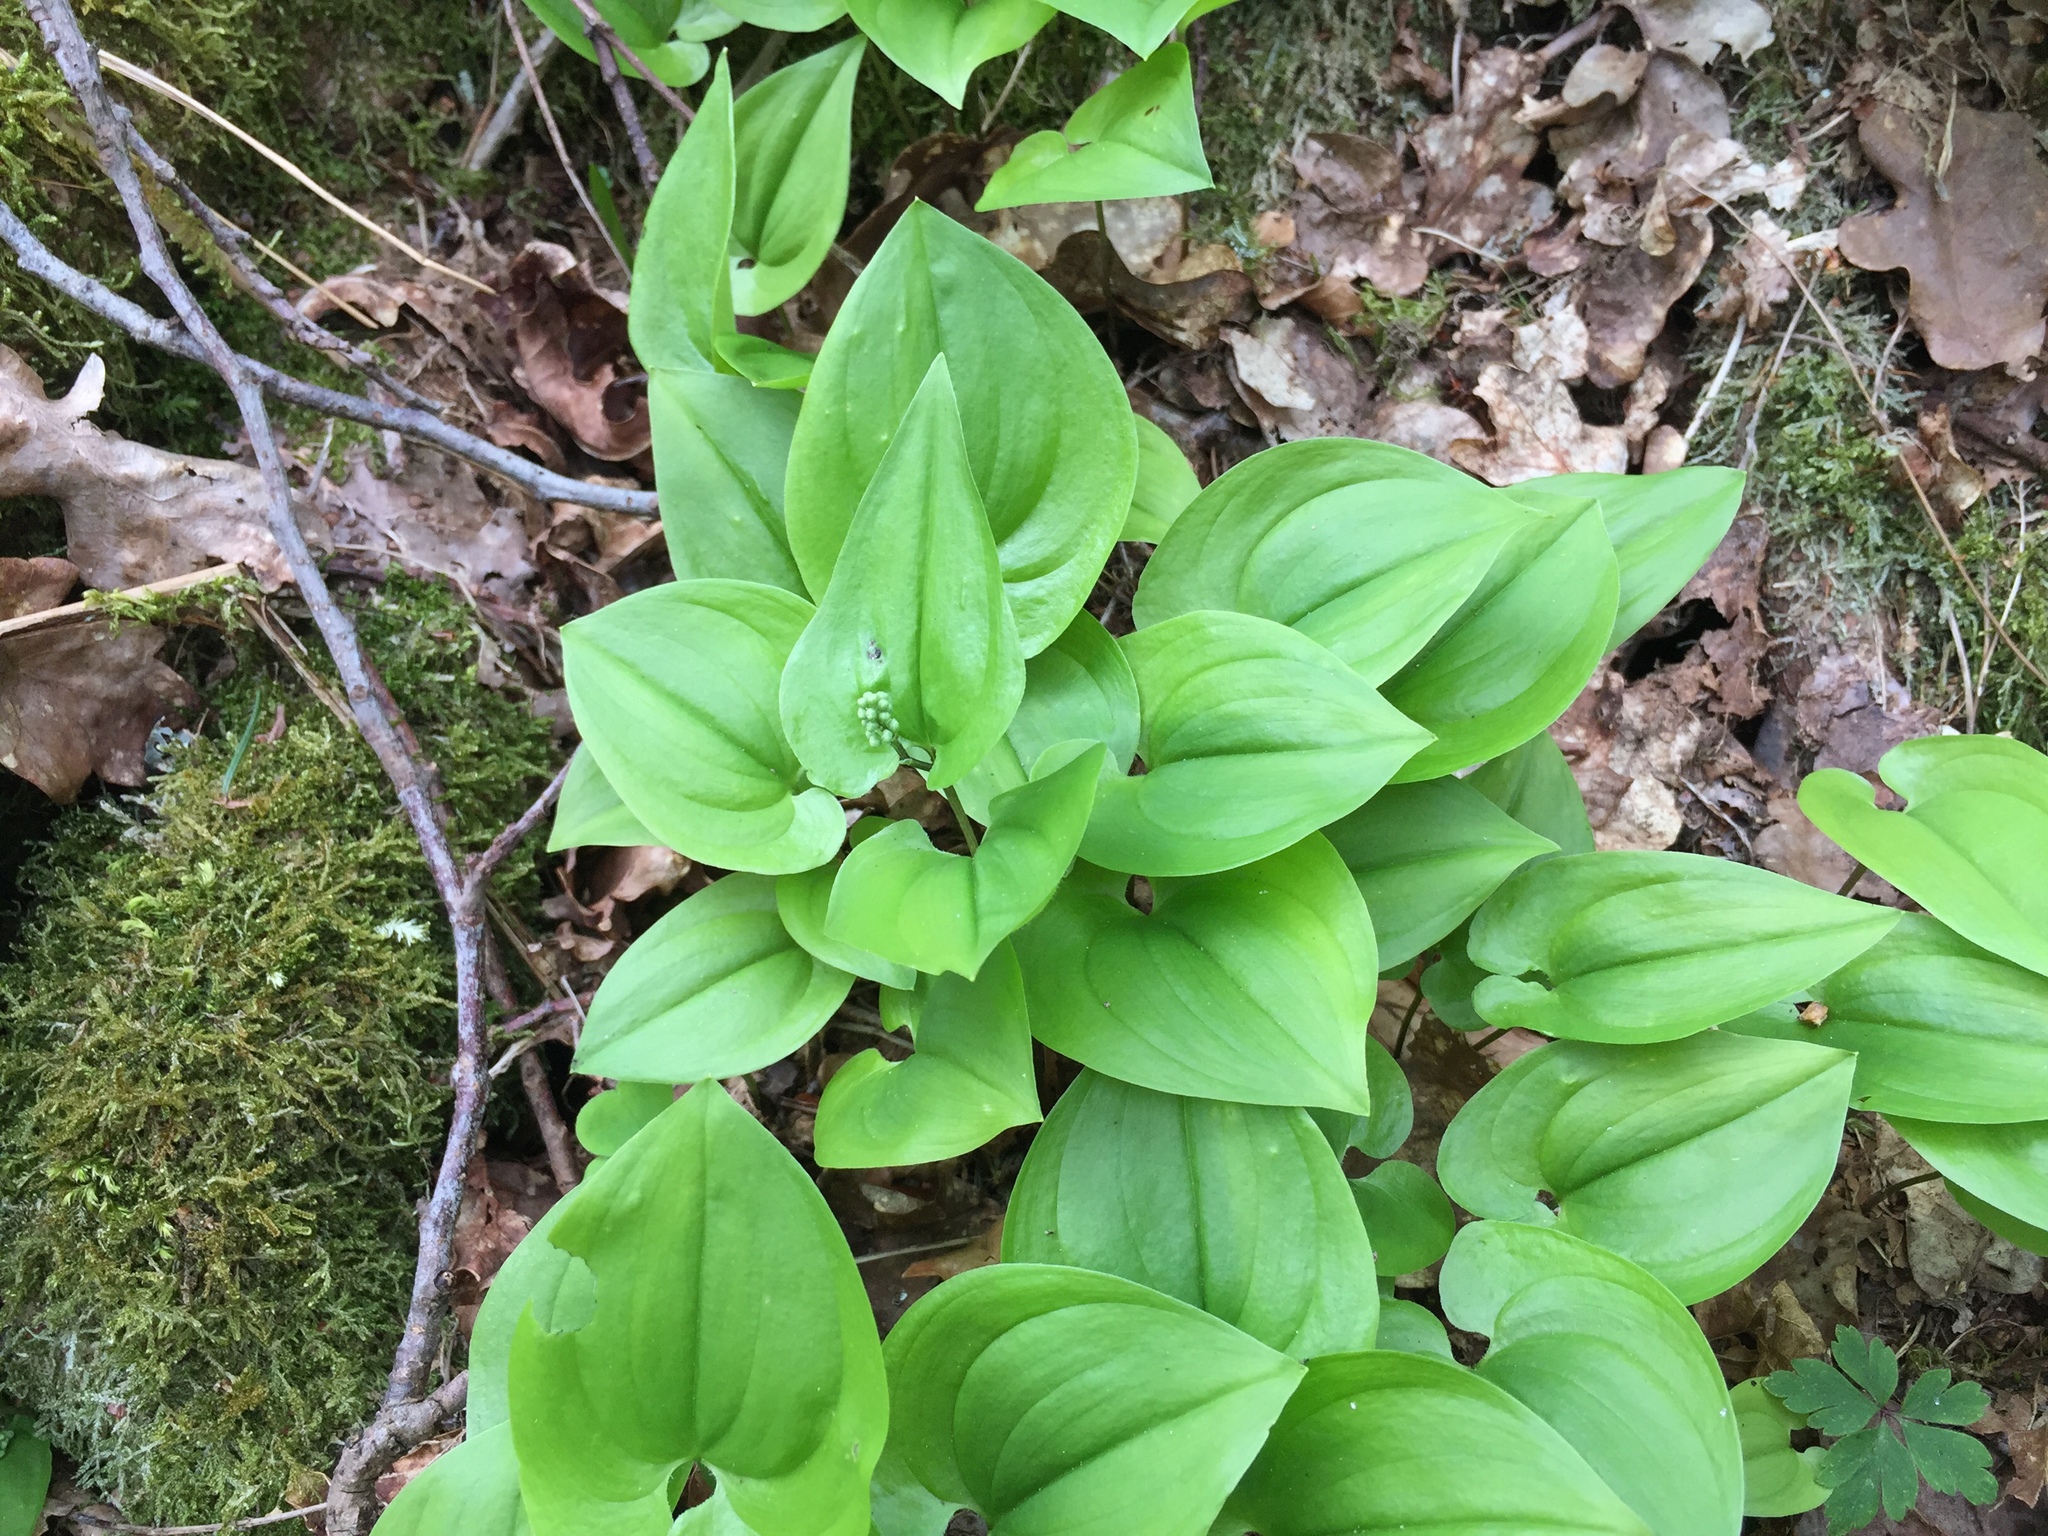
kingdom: Plantae
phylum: Tracheophyta
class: Liliopsida
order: Asparagales
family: Asparagaceae
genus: Maianthemum
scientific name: Maianthemum bifolium
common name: May lily
